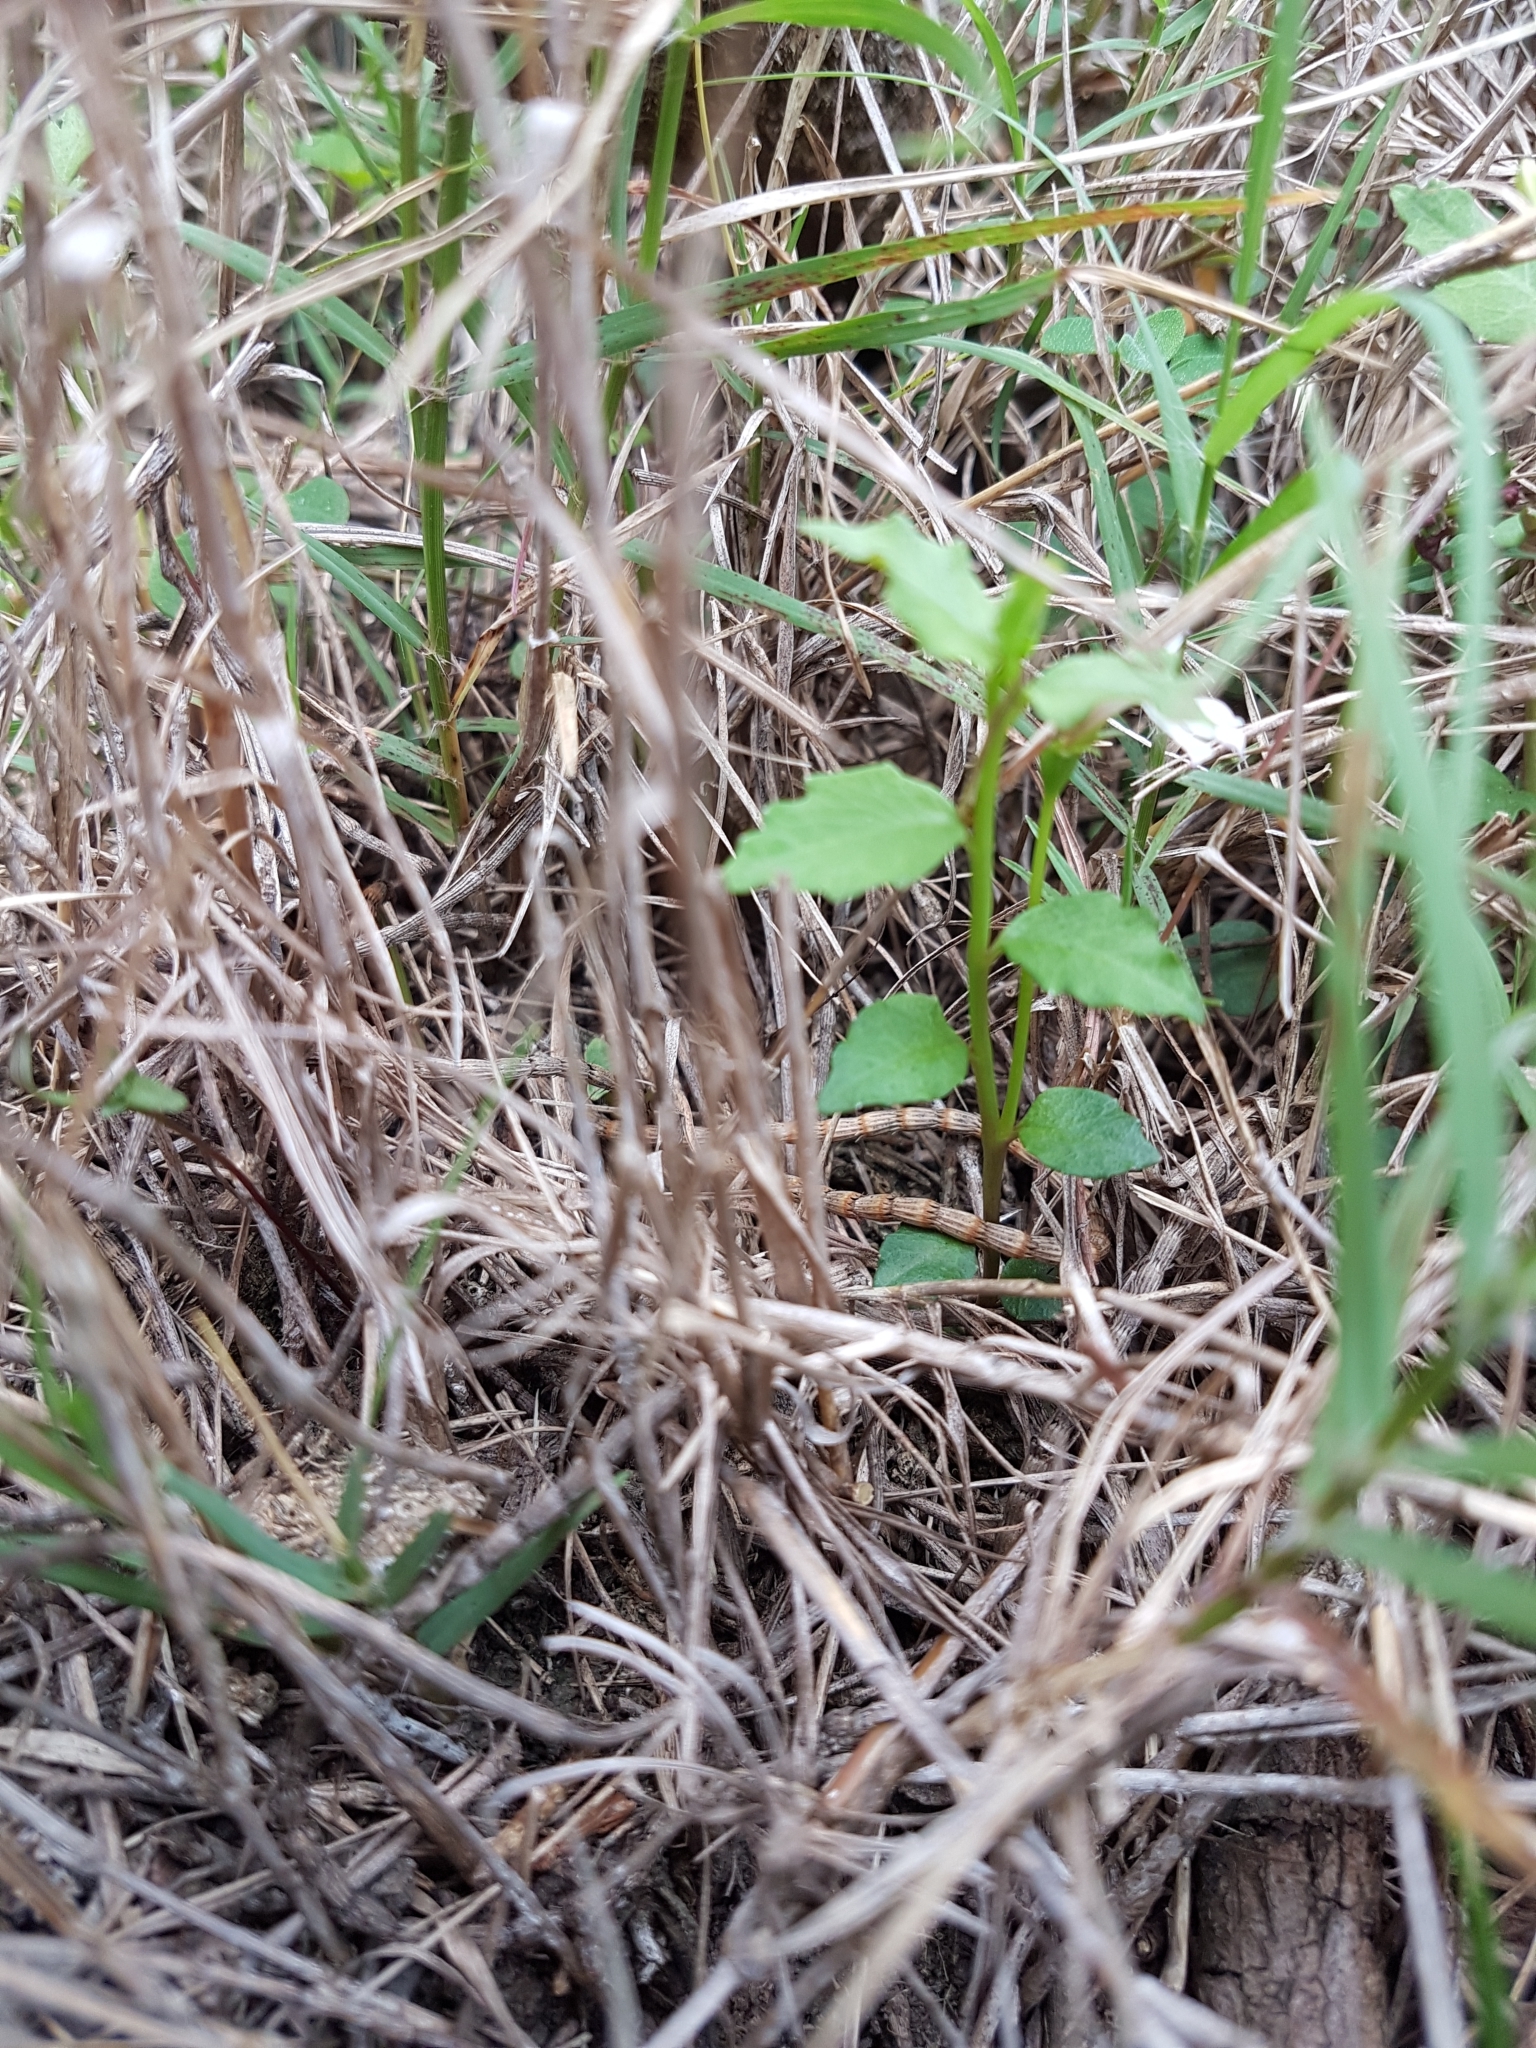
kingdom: Plantae
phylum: Tracheophyta
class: Magnoliopsida
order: Asterales
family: Campanulaceae
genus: Lobelia
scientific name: Lobelia purpurascens
